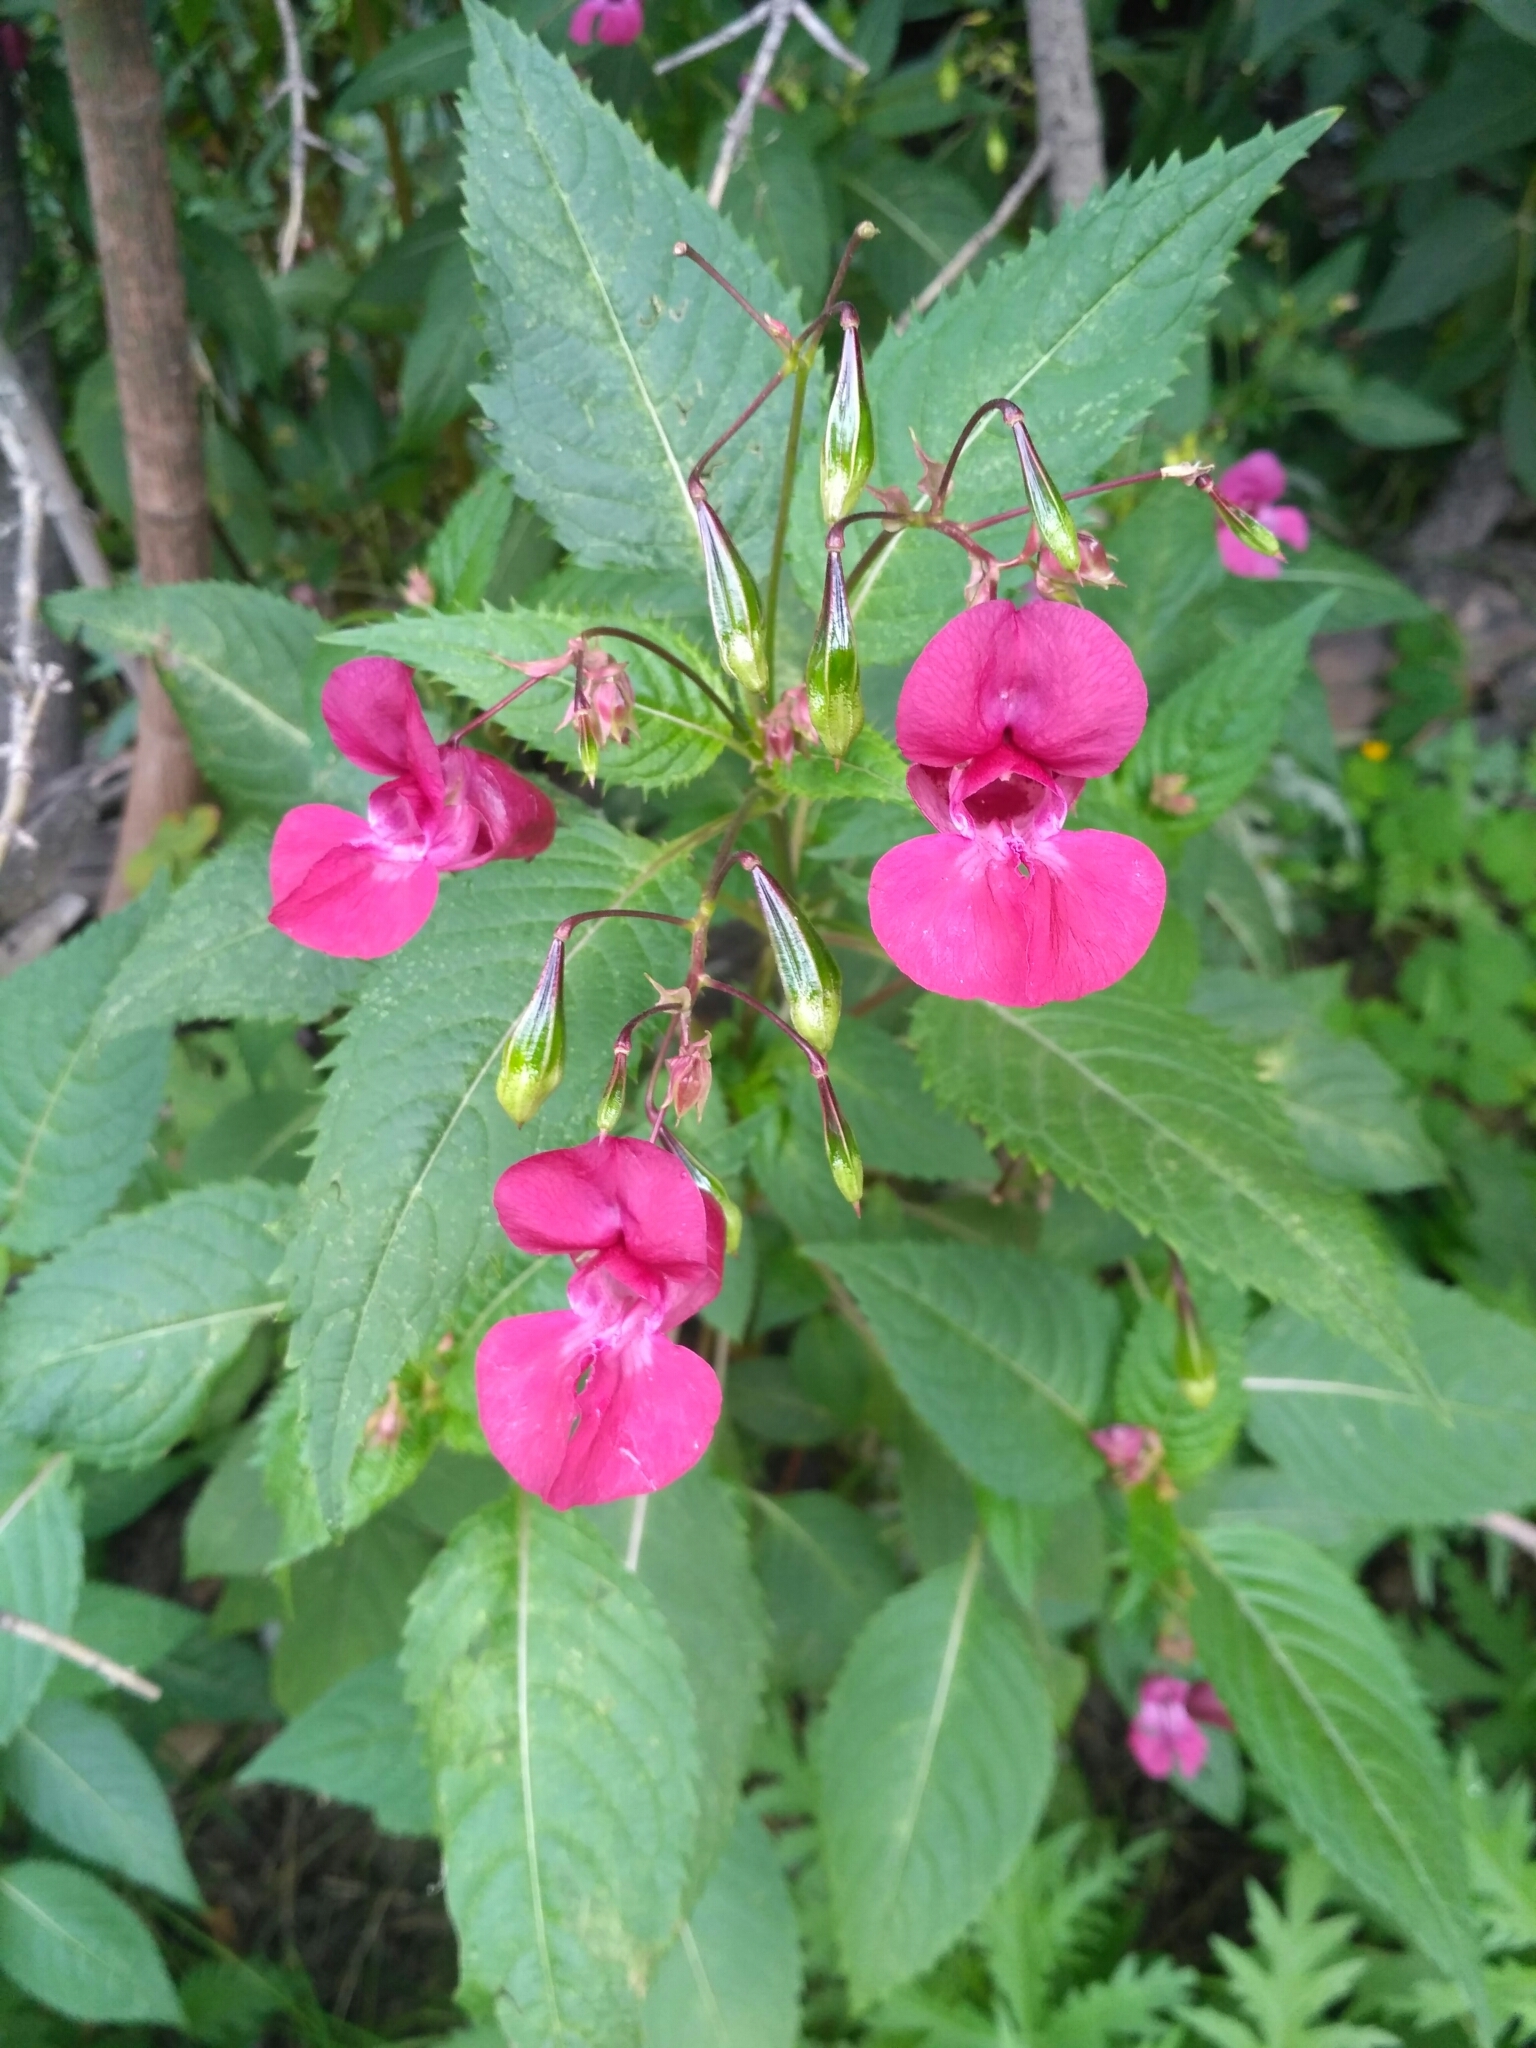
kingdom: Plantae
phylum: Tracheophyta
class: Magnoliopsida
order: Ericales
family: Balsaminaceae
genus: Impatiens
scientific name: Impatiens glandulifera
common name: Himalayan balsam
